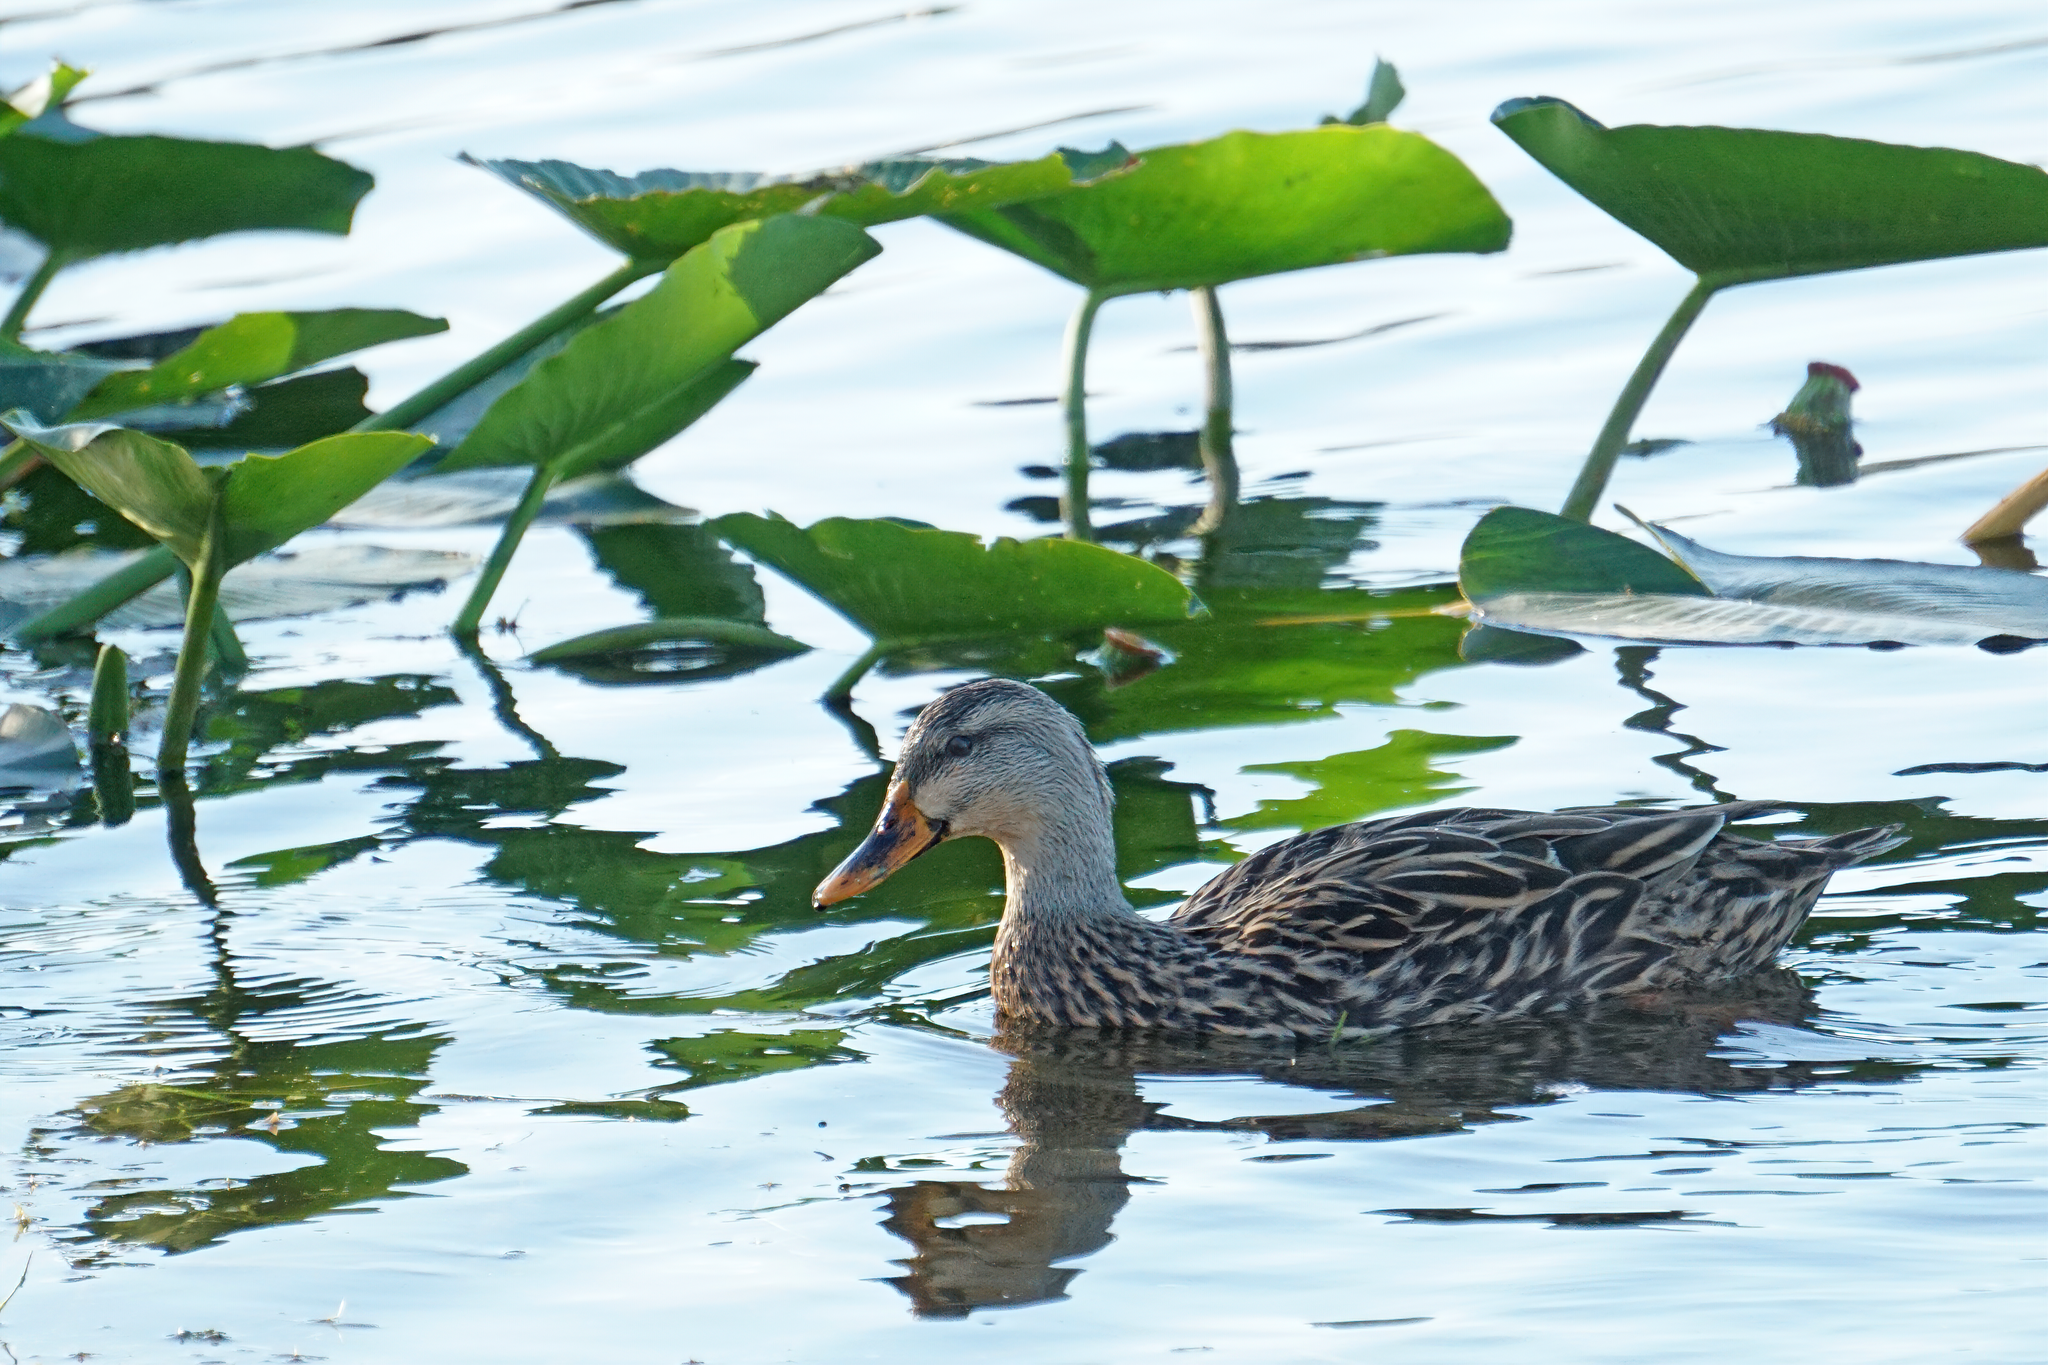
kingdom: Animalia
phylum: Chordata
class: Aves
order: Anseriformes
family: Anatidae
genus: Anas
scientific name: Anas
